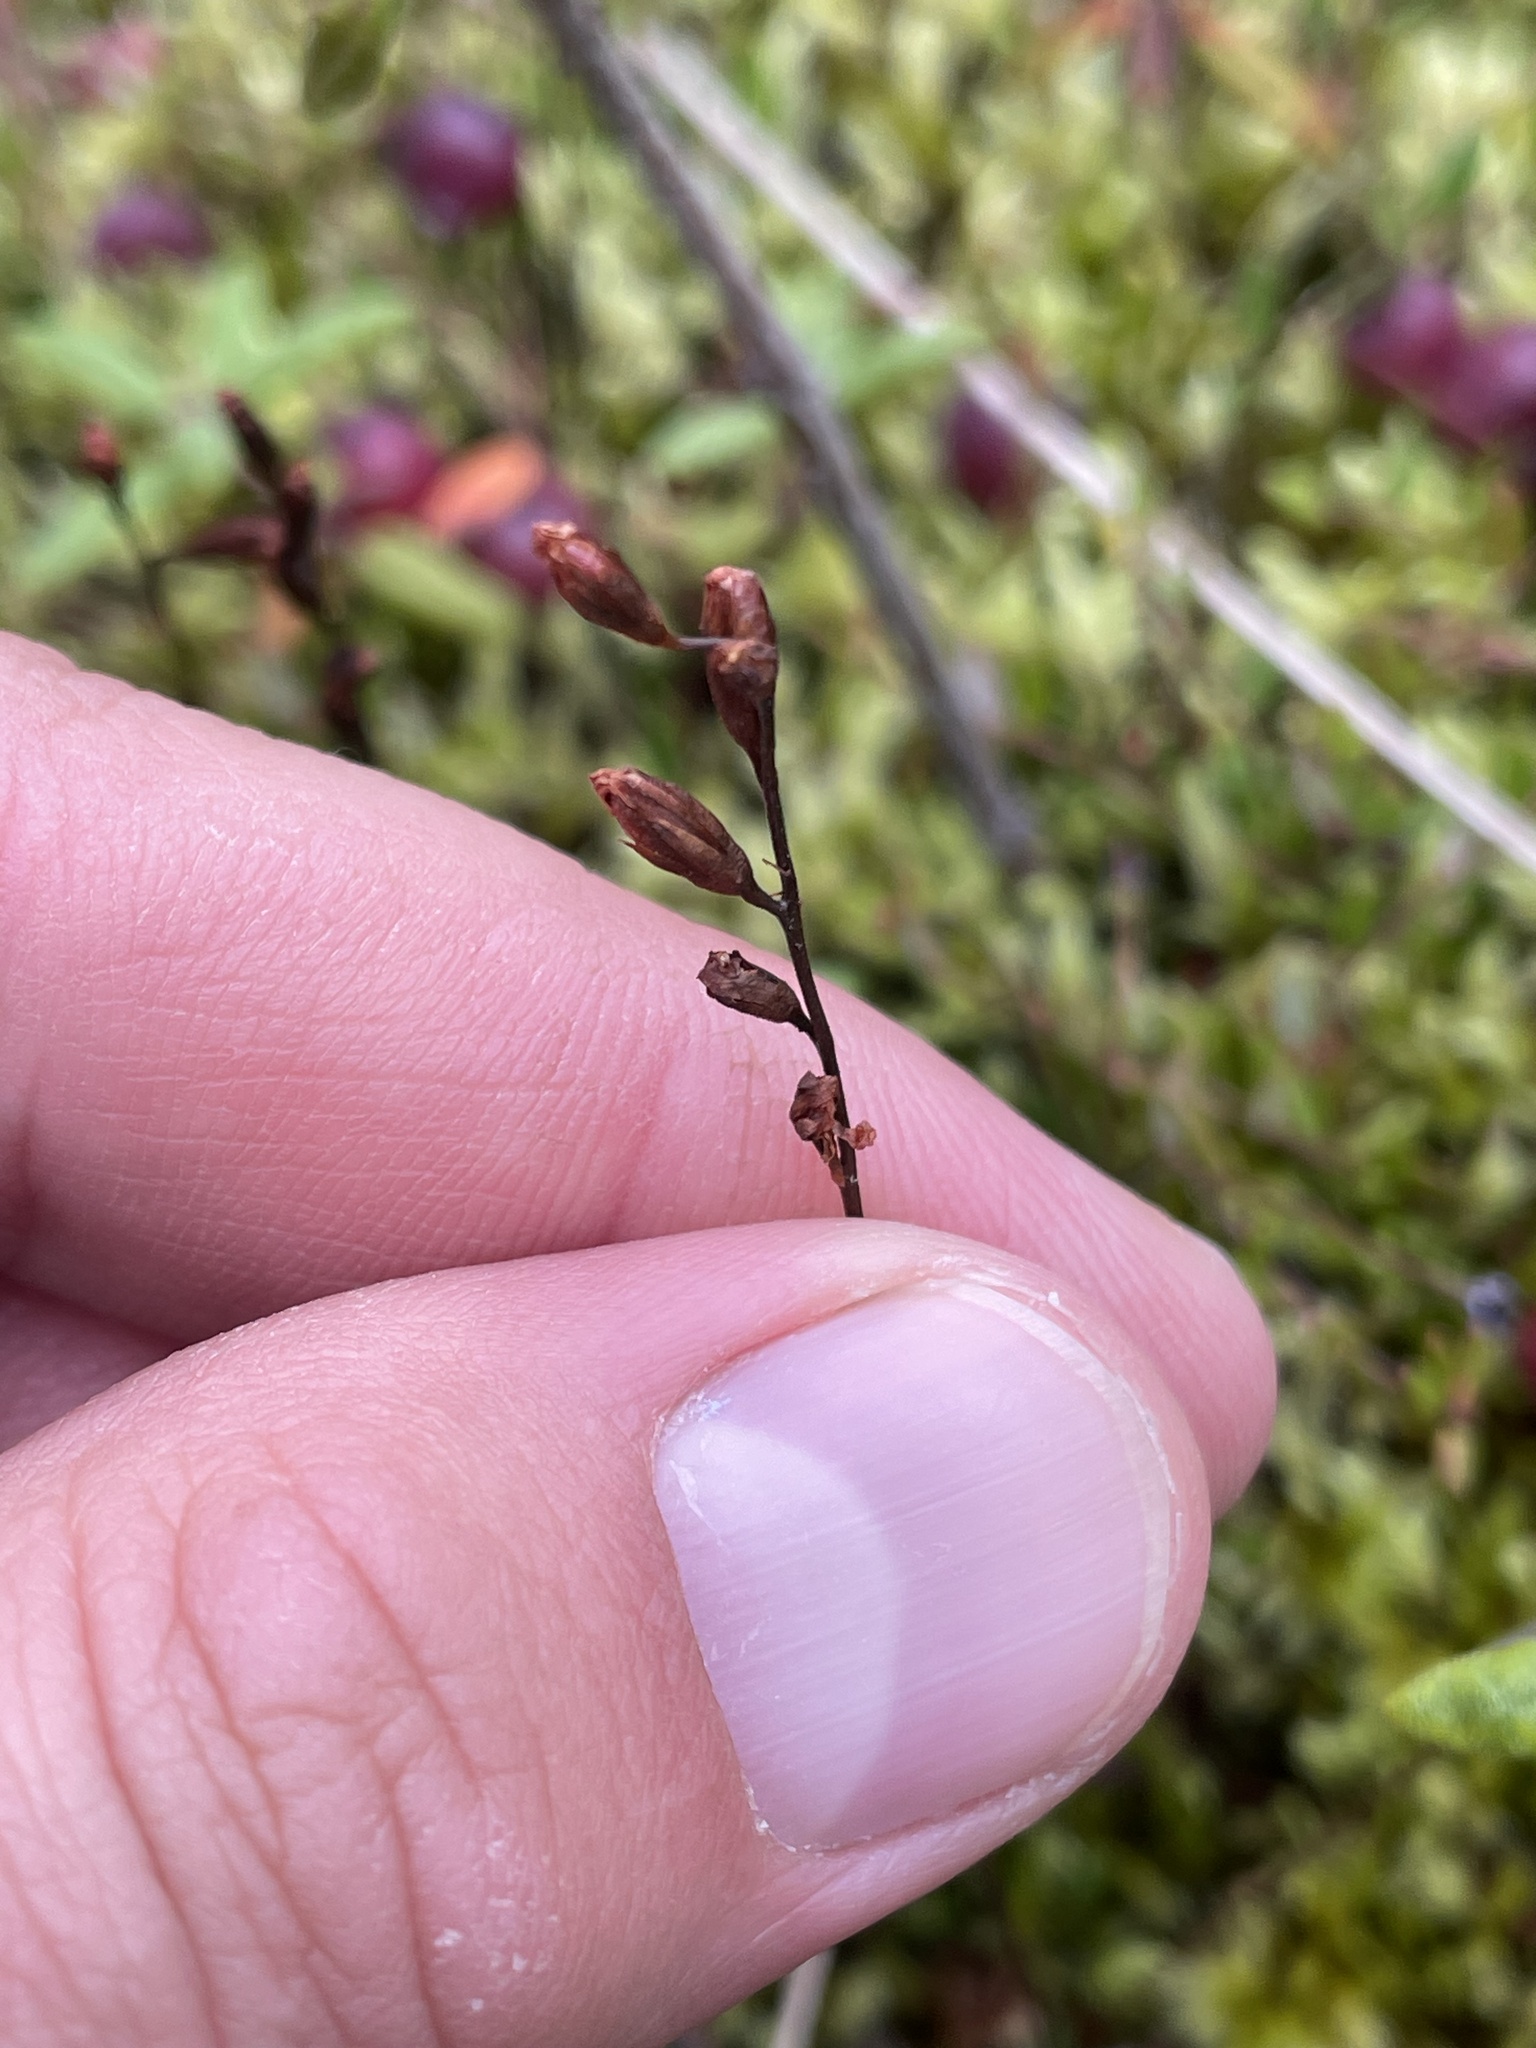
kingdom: Plantae
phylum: Tracheophyta
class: Magnoliopsida
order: Caryophyllales
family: Droseraceae
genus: Drosera
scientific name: Drosera rotundifolia
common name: Round-leaved sundew
